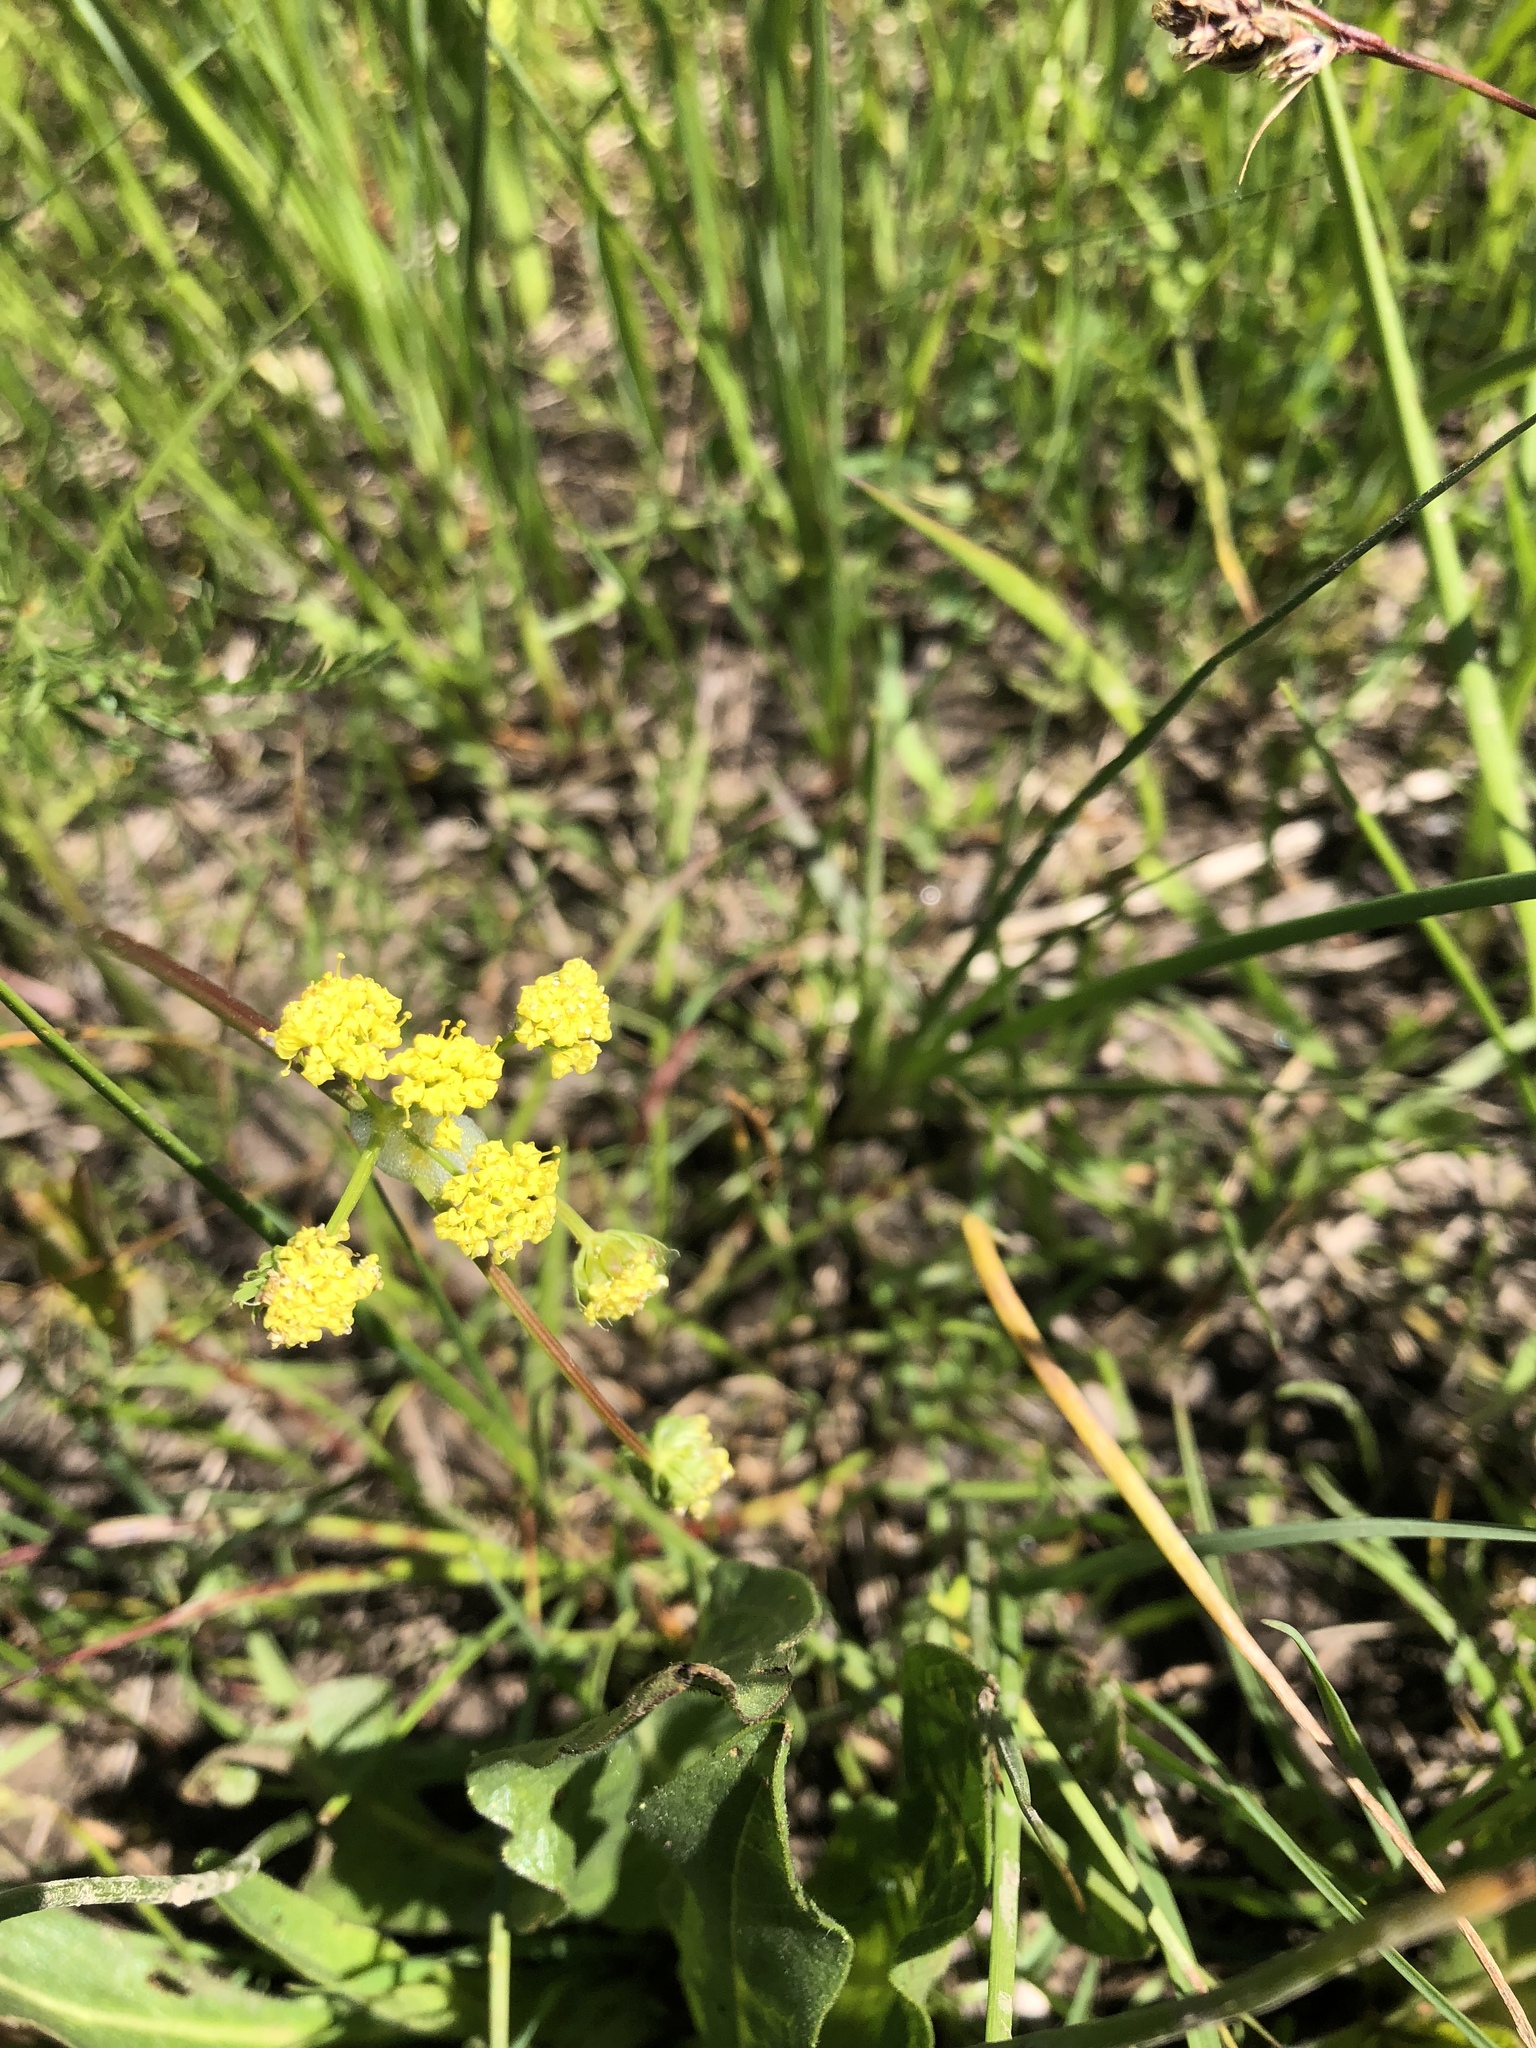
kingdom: Plantae
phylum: Tracheophyta
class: Magnoliopsida
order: Apiales
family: Apiaceae
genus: Lomatium
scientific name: Lomatium bradshawii
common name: Bradshaw's desert-parsley
